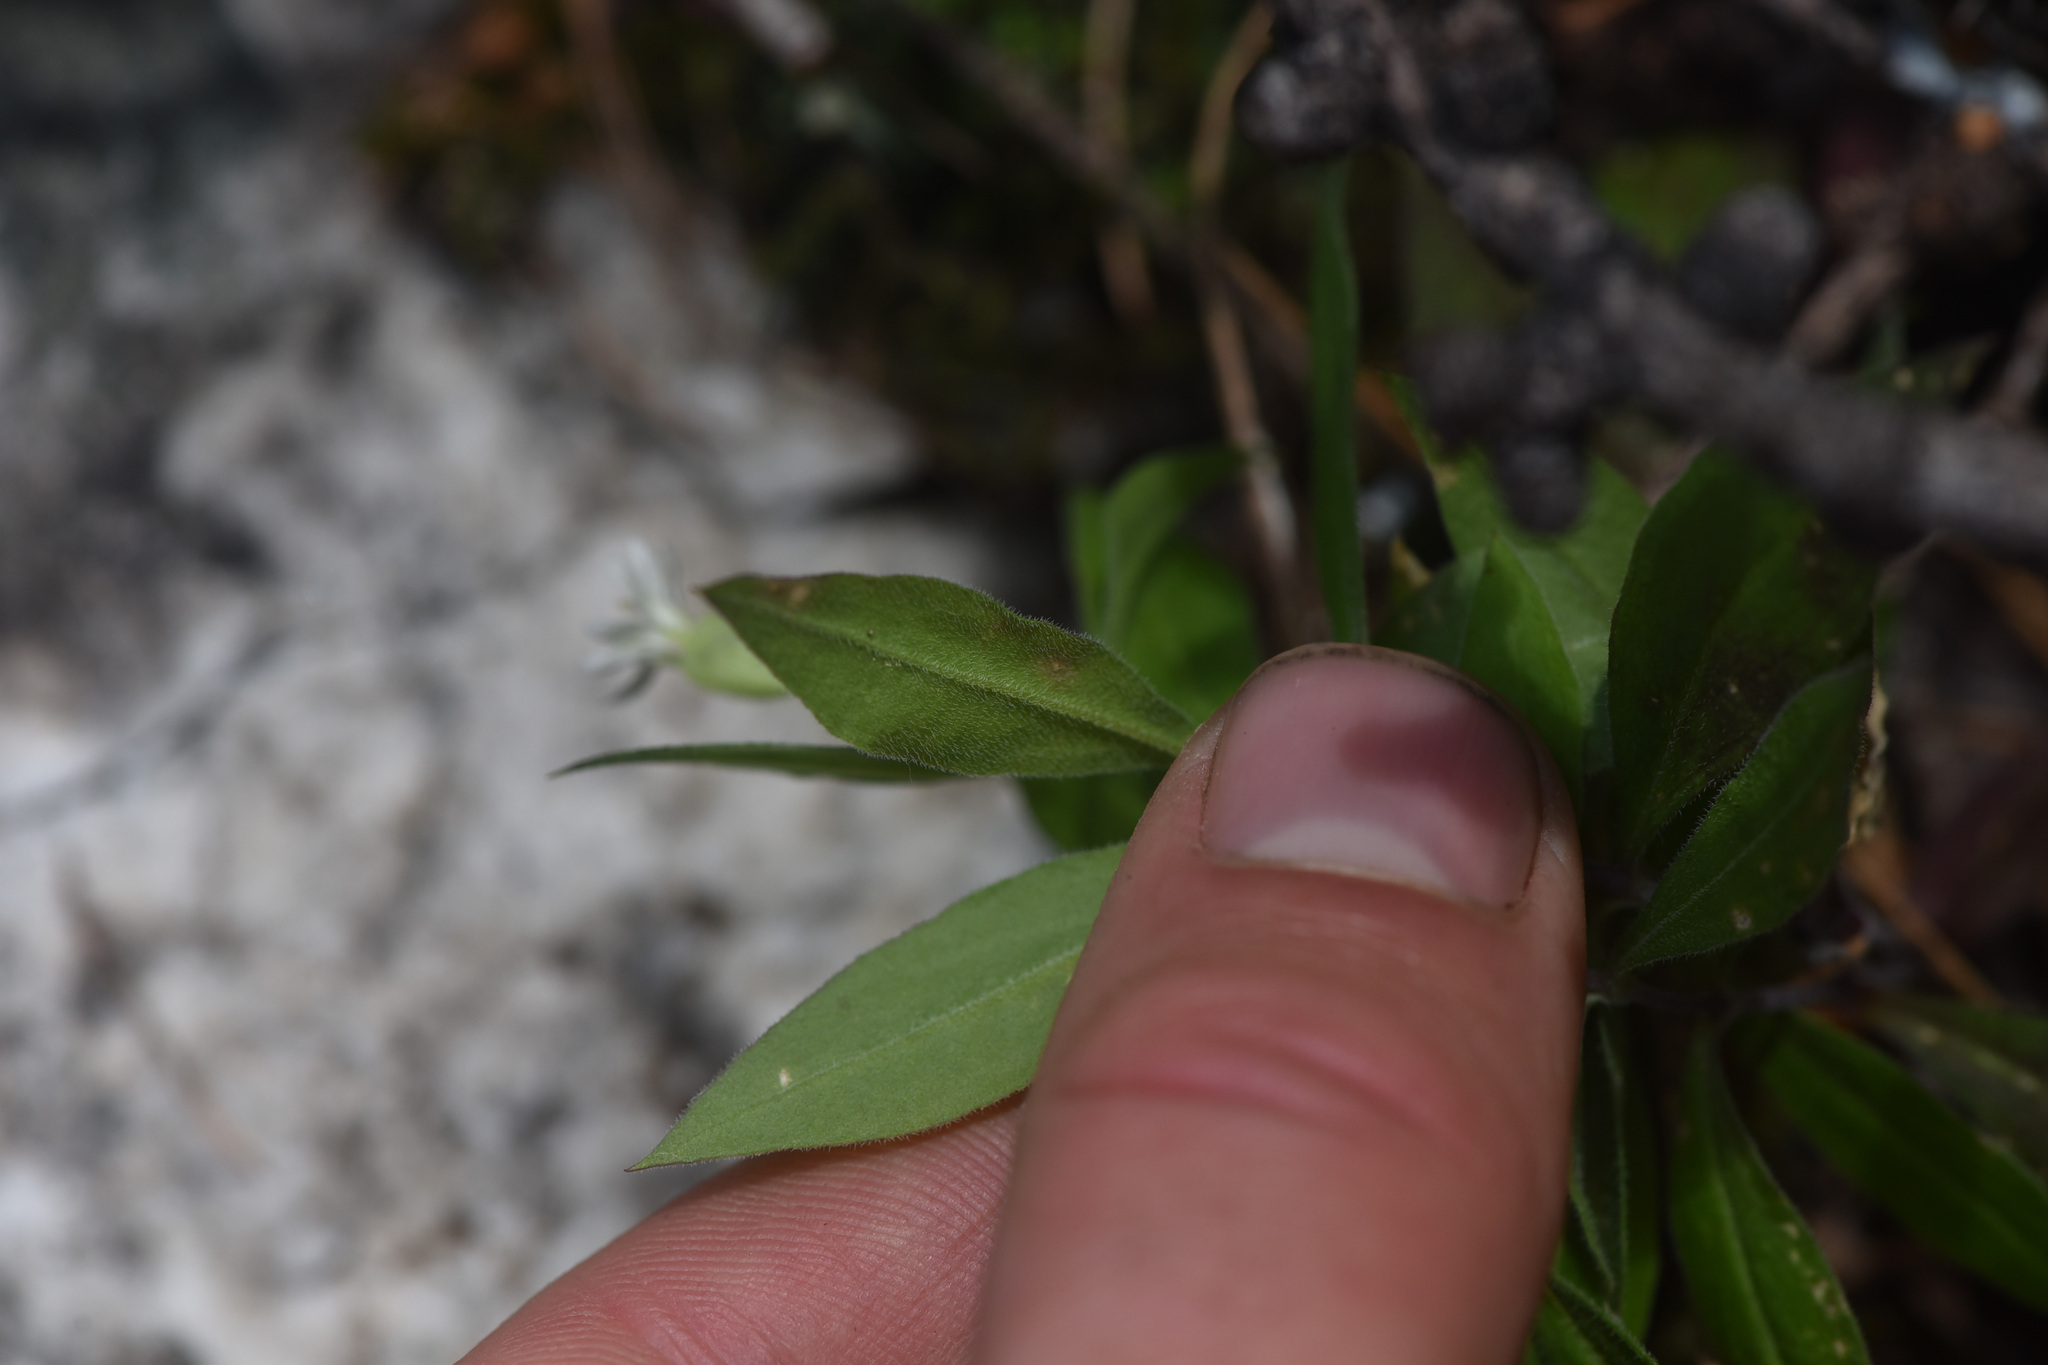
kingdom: Plantae
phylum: Tracheophyta
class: Magnoliopsida
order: Caryophyllales
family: Caryophyllaceae
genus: Silene
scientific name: Silene menziesii
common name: Menzies's catchfly
